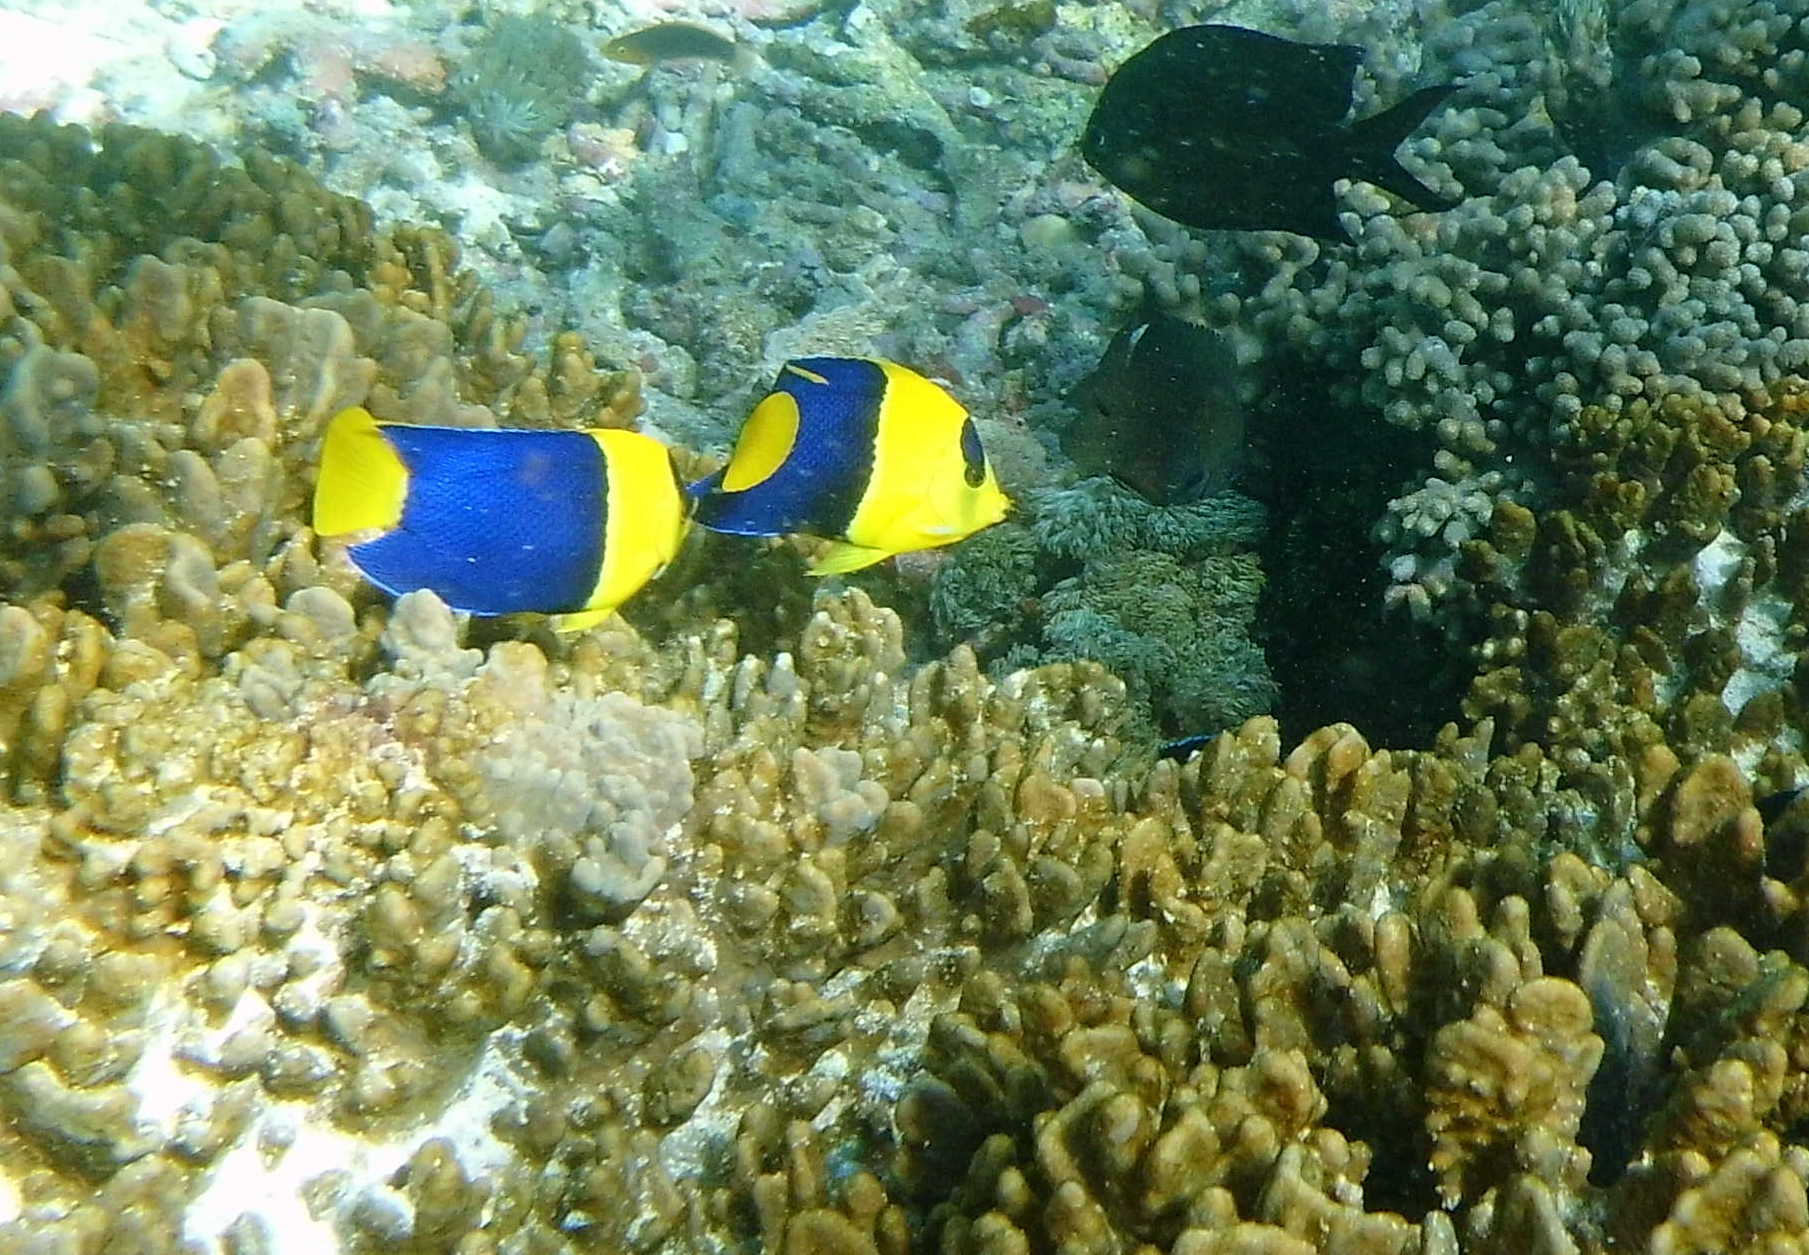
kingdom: Animalia
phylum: Chordata
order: Perciformes
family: Pomacanthidae
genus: Centropyge
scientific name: Centropyge bicolor
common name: Bicolor angelfish
